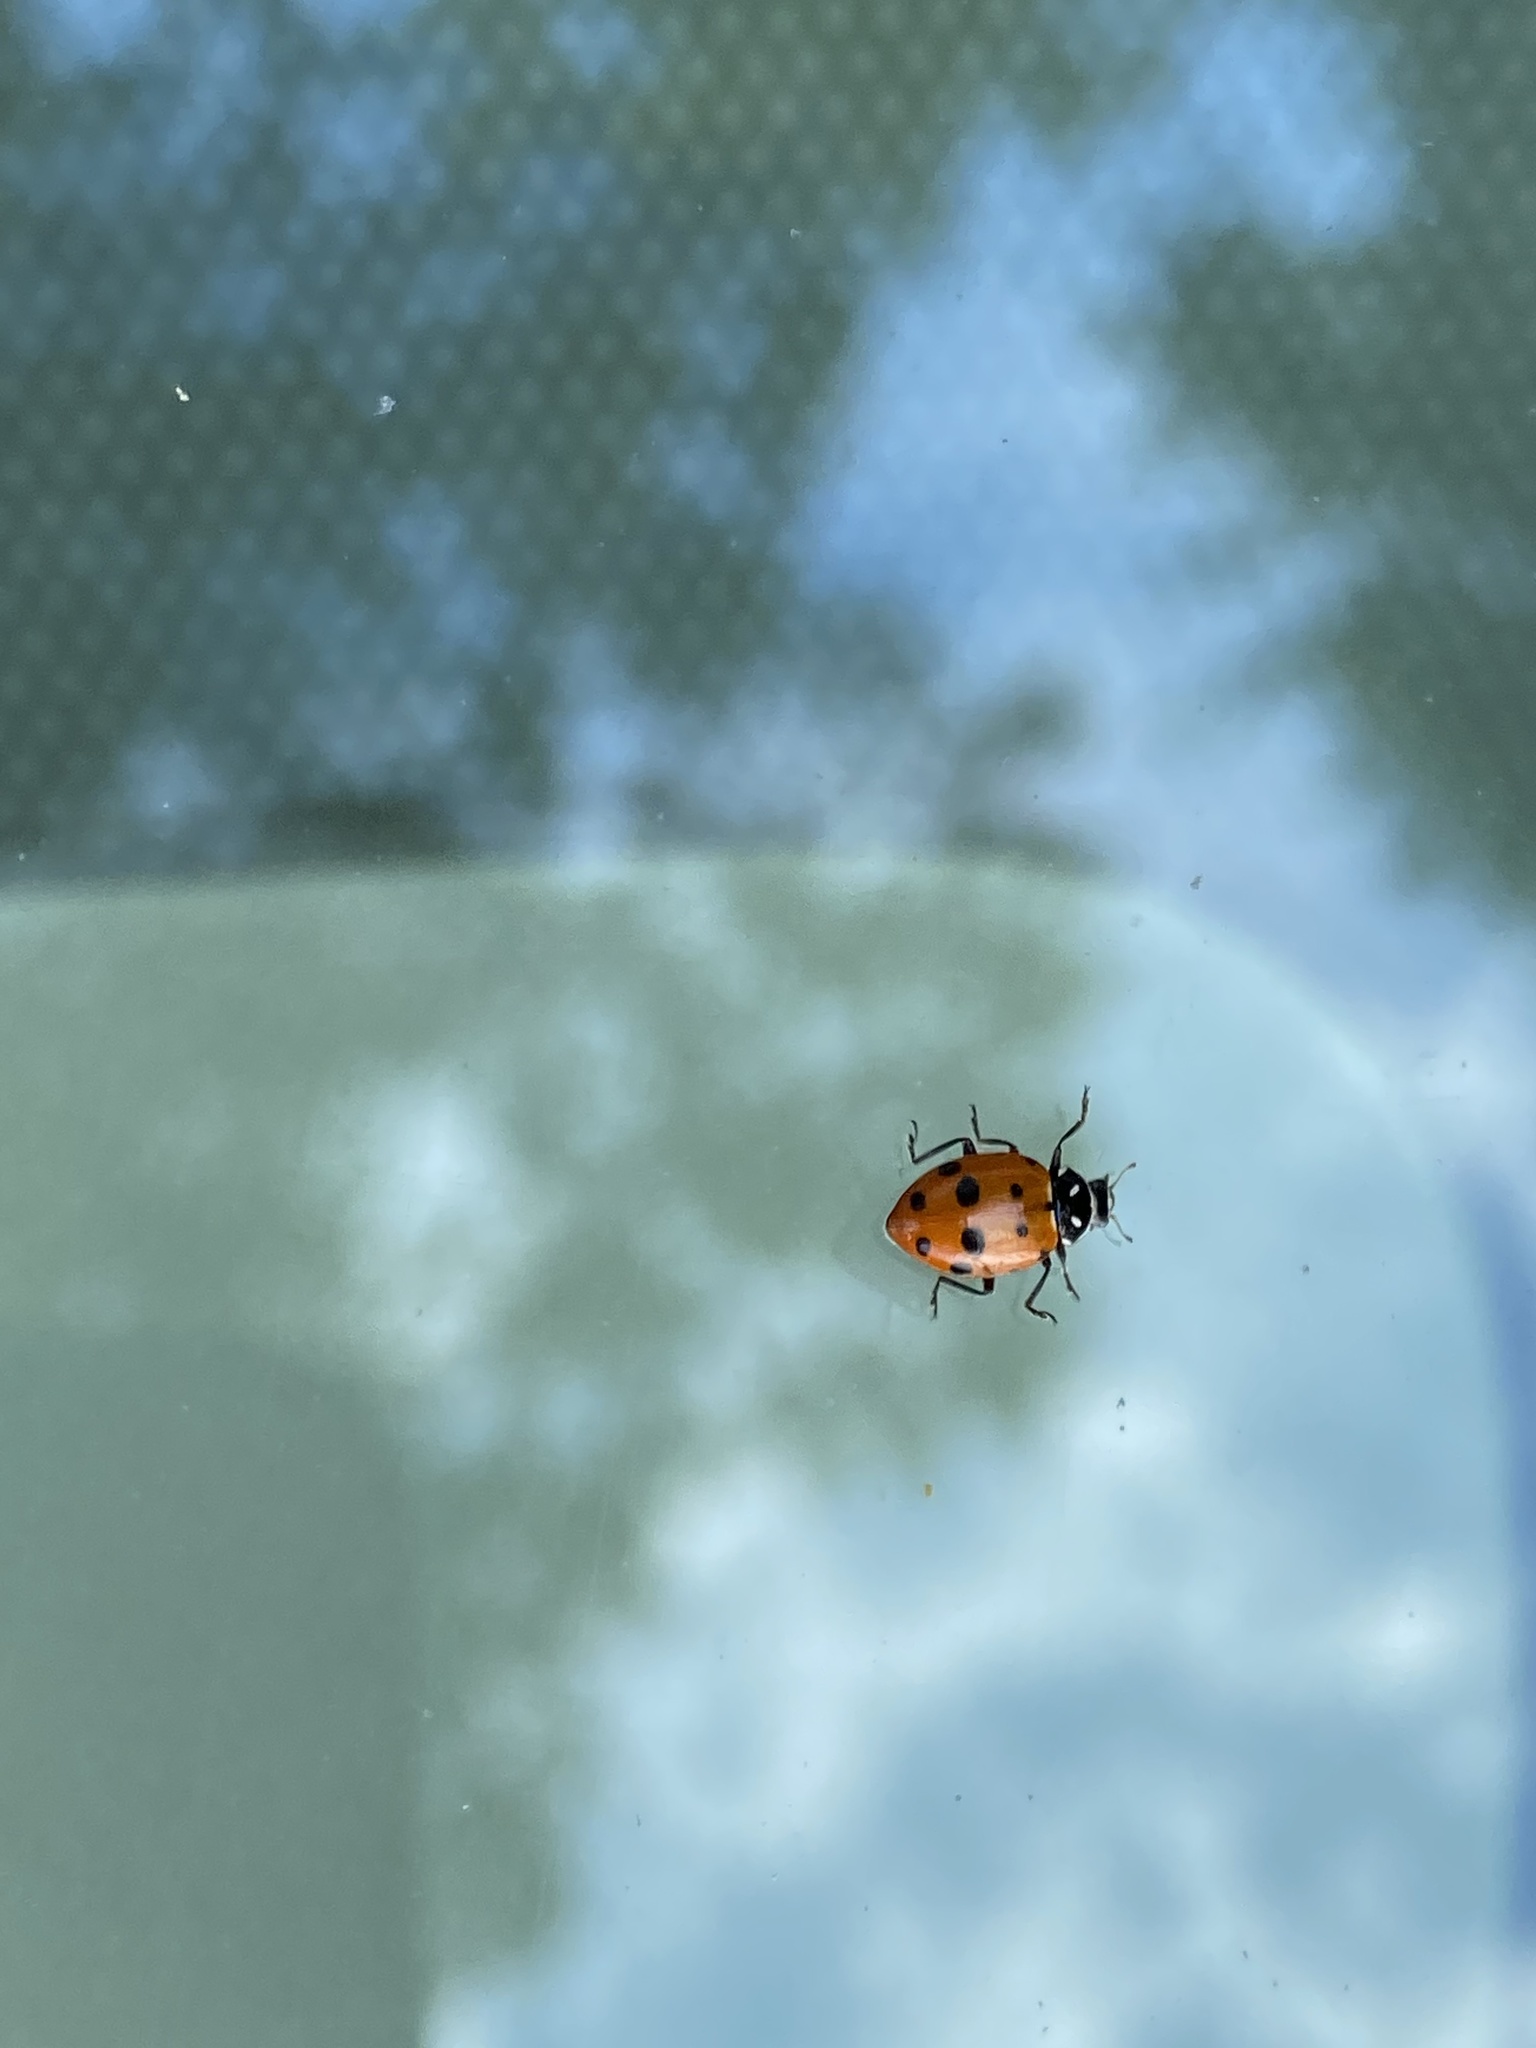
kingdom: Animalia
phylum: Arthropoda
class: Insecta
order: Coleoptera
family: Coccinellidae
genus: Hippodamia
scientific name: Hippodamia convergens
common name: Convergent lady beetle
